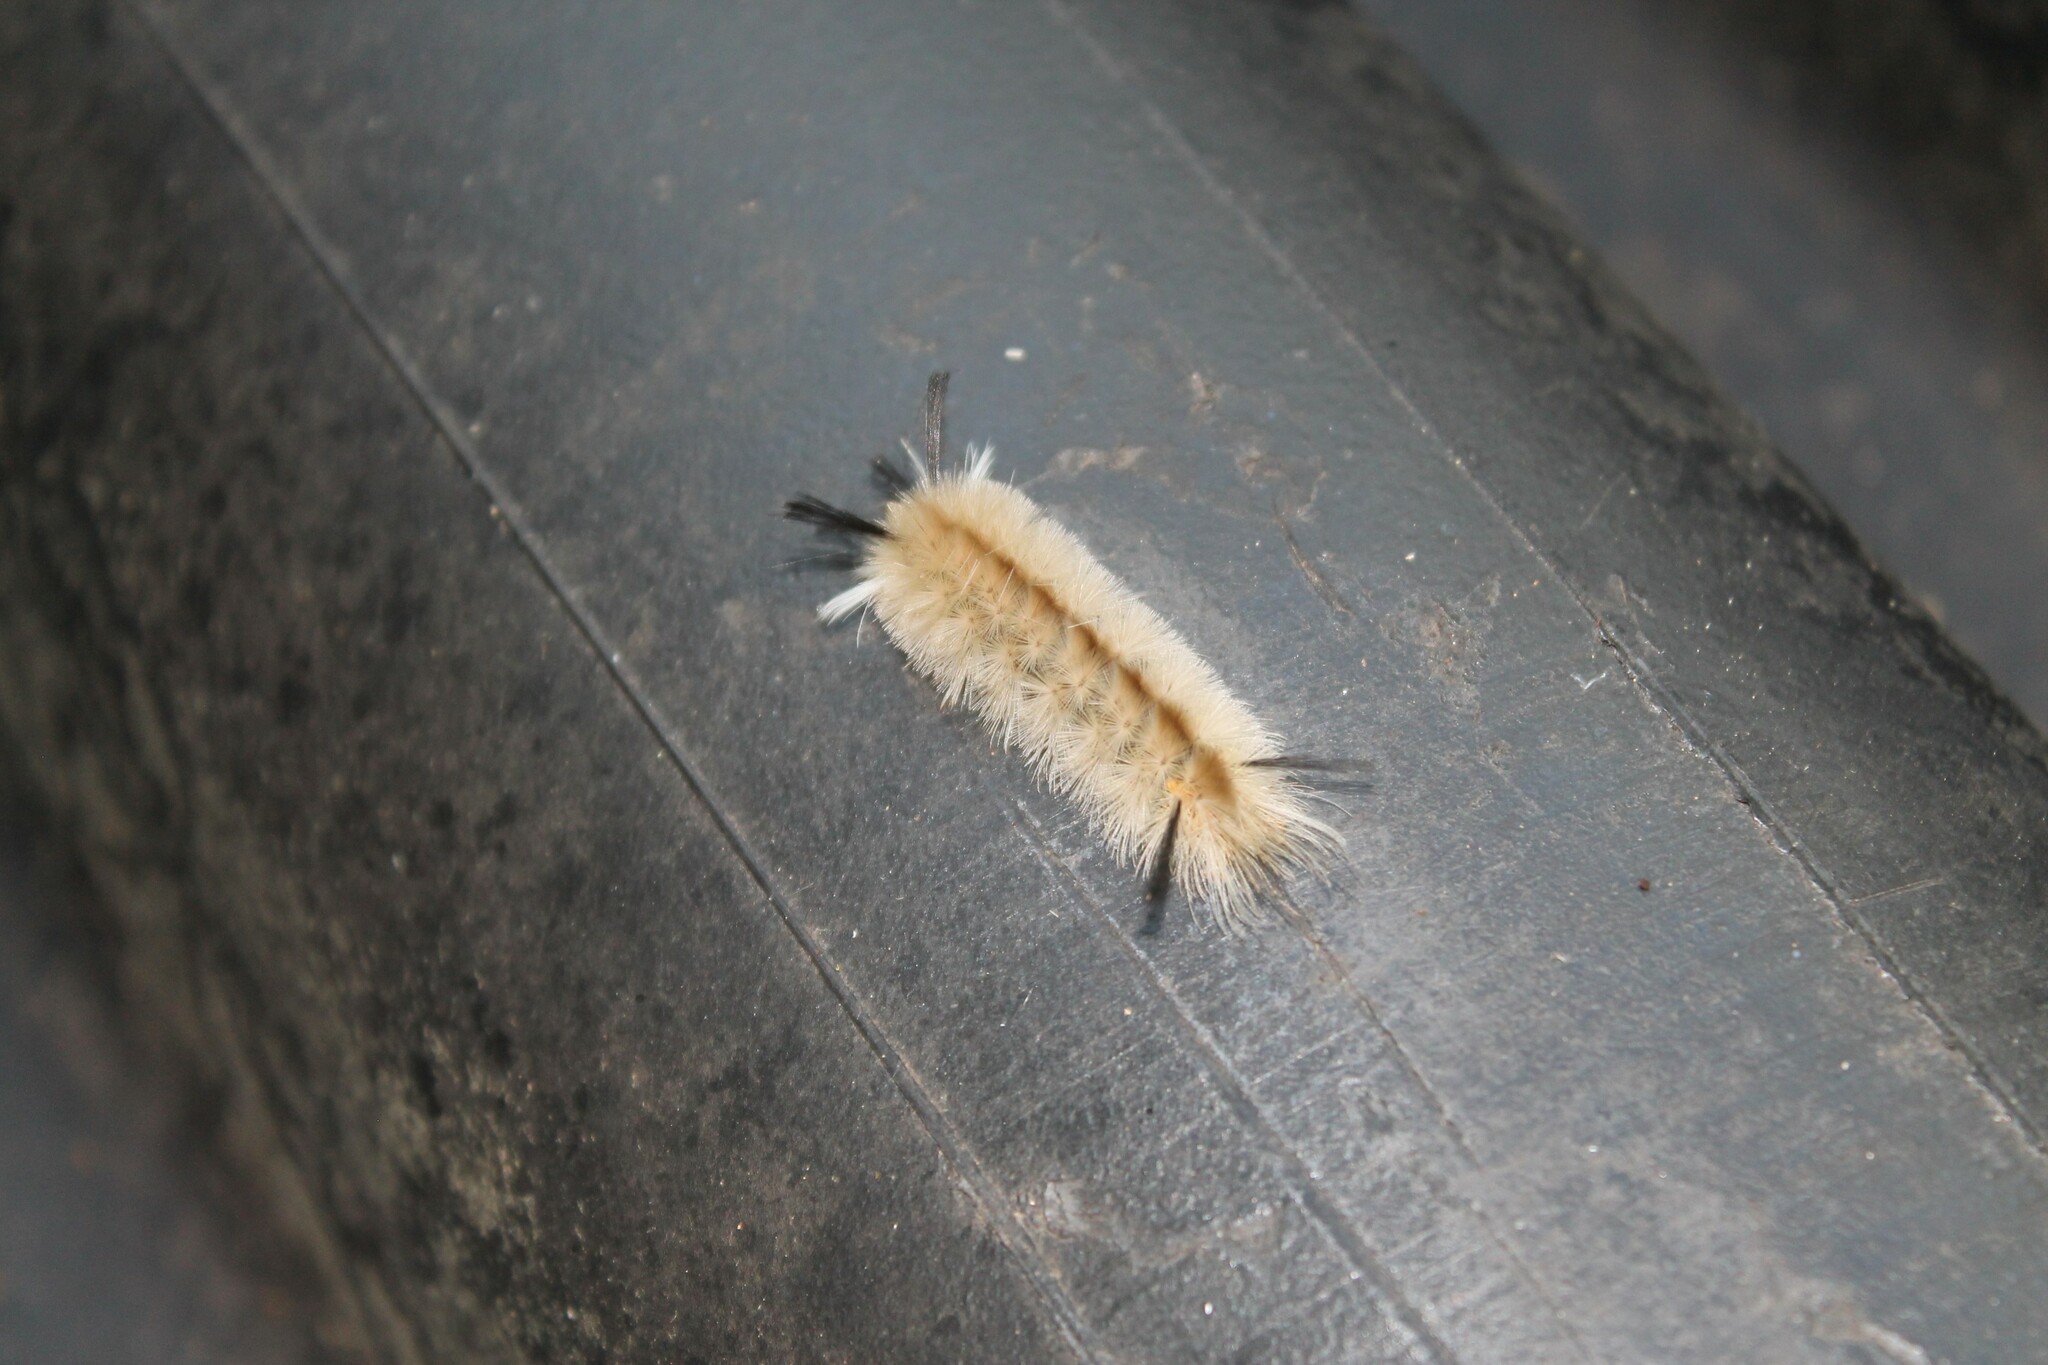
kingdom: Animalia
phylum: Arthropoda
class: Insecta
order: Lepidoptera
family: Erebidae
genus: Halysidota
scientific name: Halysidota tessellaris
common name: Banded tussock moth
